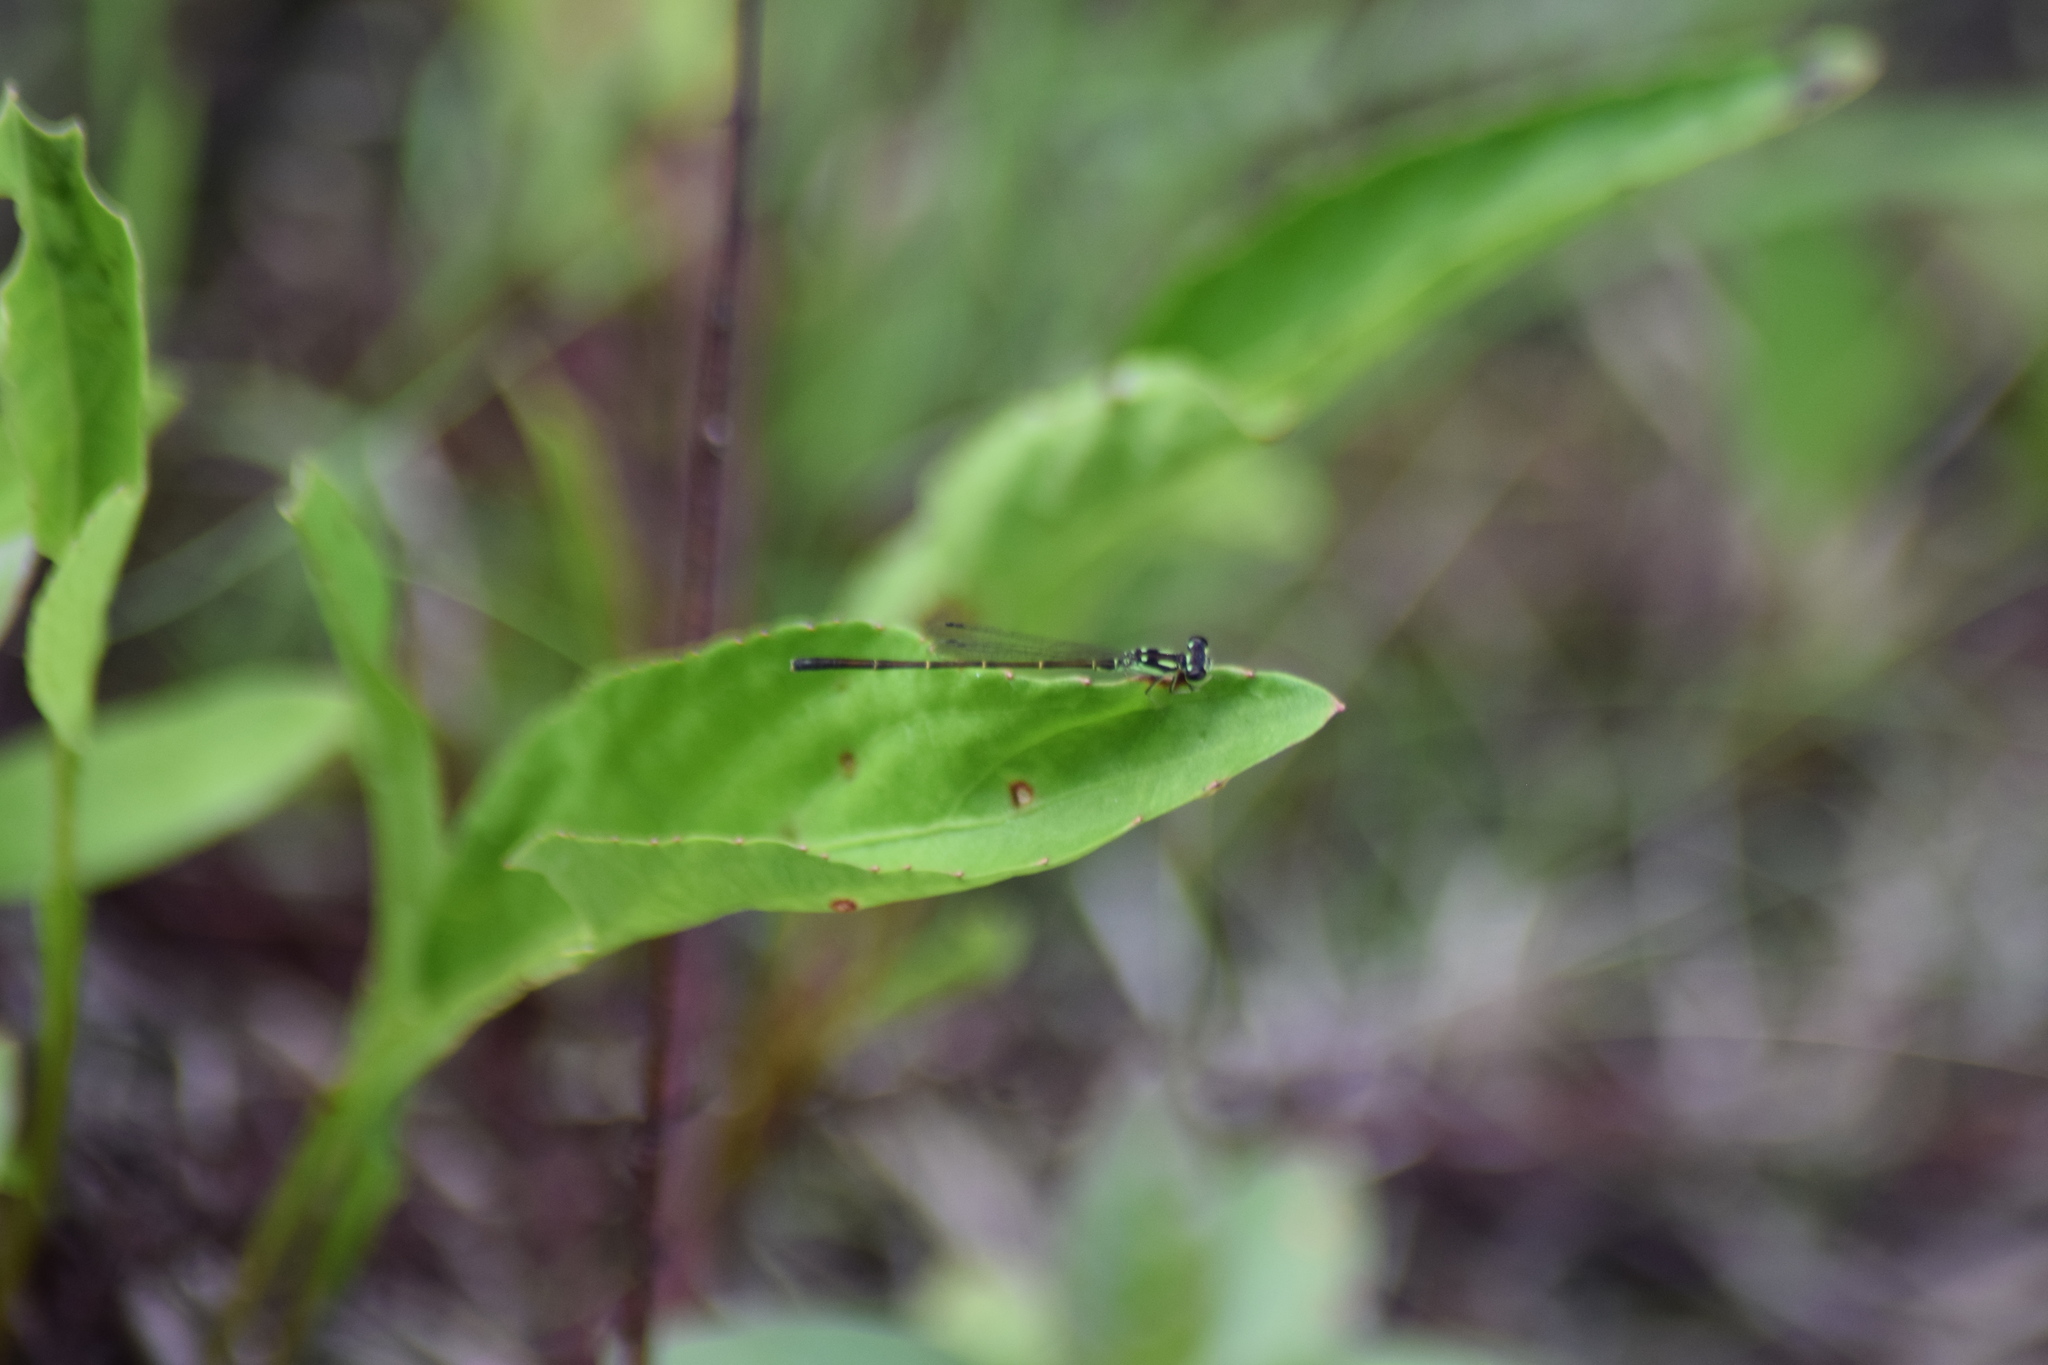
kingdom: Animalia
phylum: Arthropoda
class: Insecta
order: Odonata
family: Coenagrionidae
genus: Ischnura
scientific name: Ischnura posita
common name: Fragile forktail
